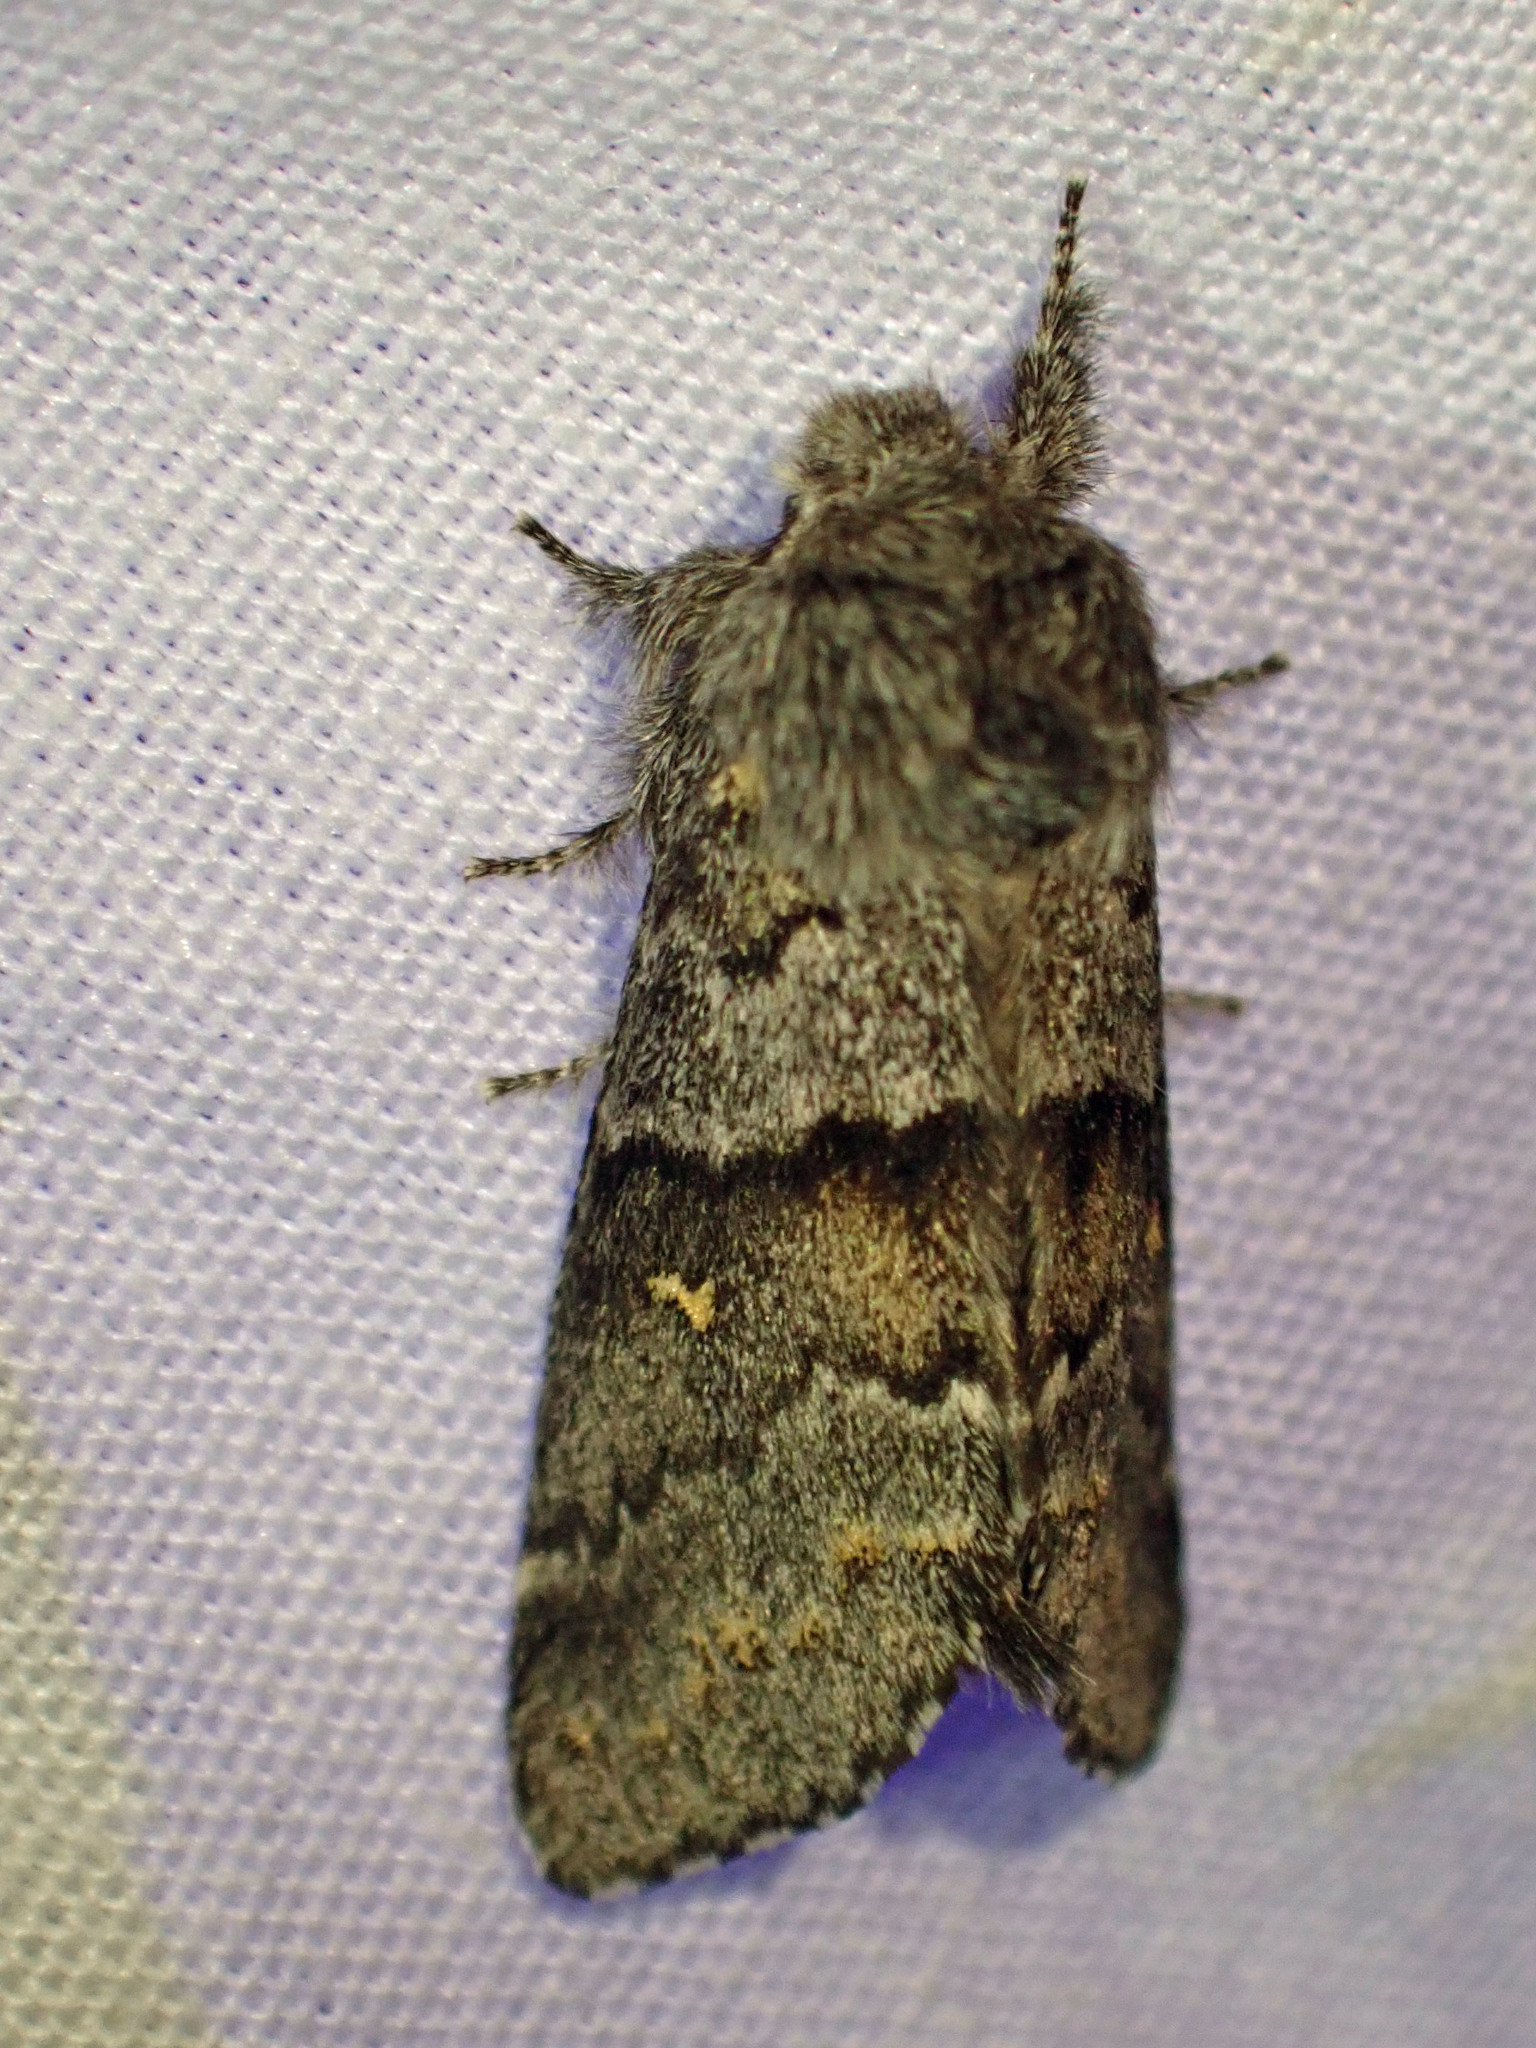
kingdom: Animalia
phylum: Arthropoda
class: Insecta
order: Lepidoptera
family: Notodontidae
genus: Gluphisia
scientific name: Gluphisia avimacula
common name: Four-spotted gluphisia moth
